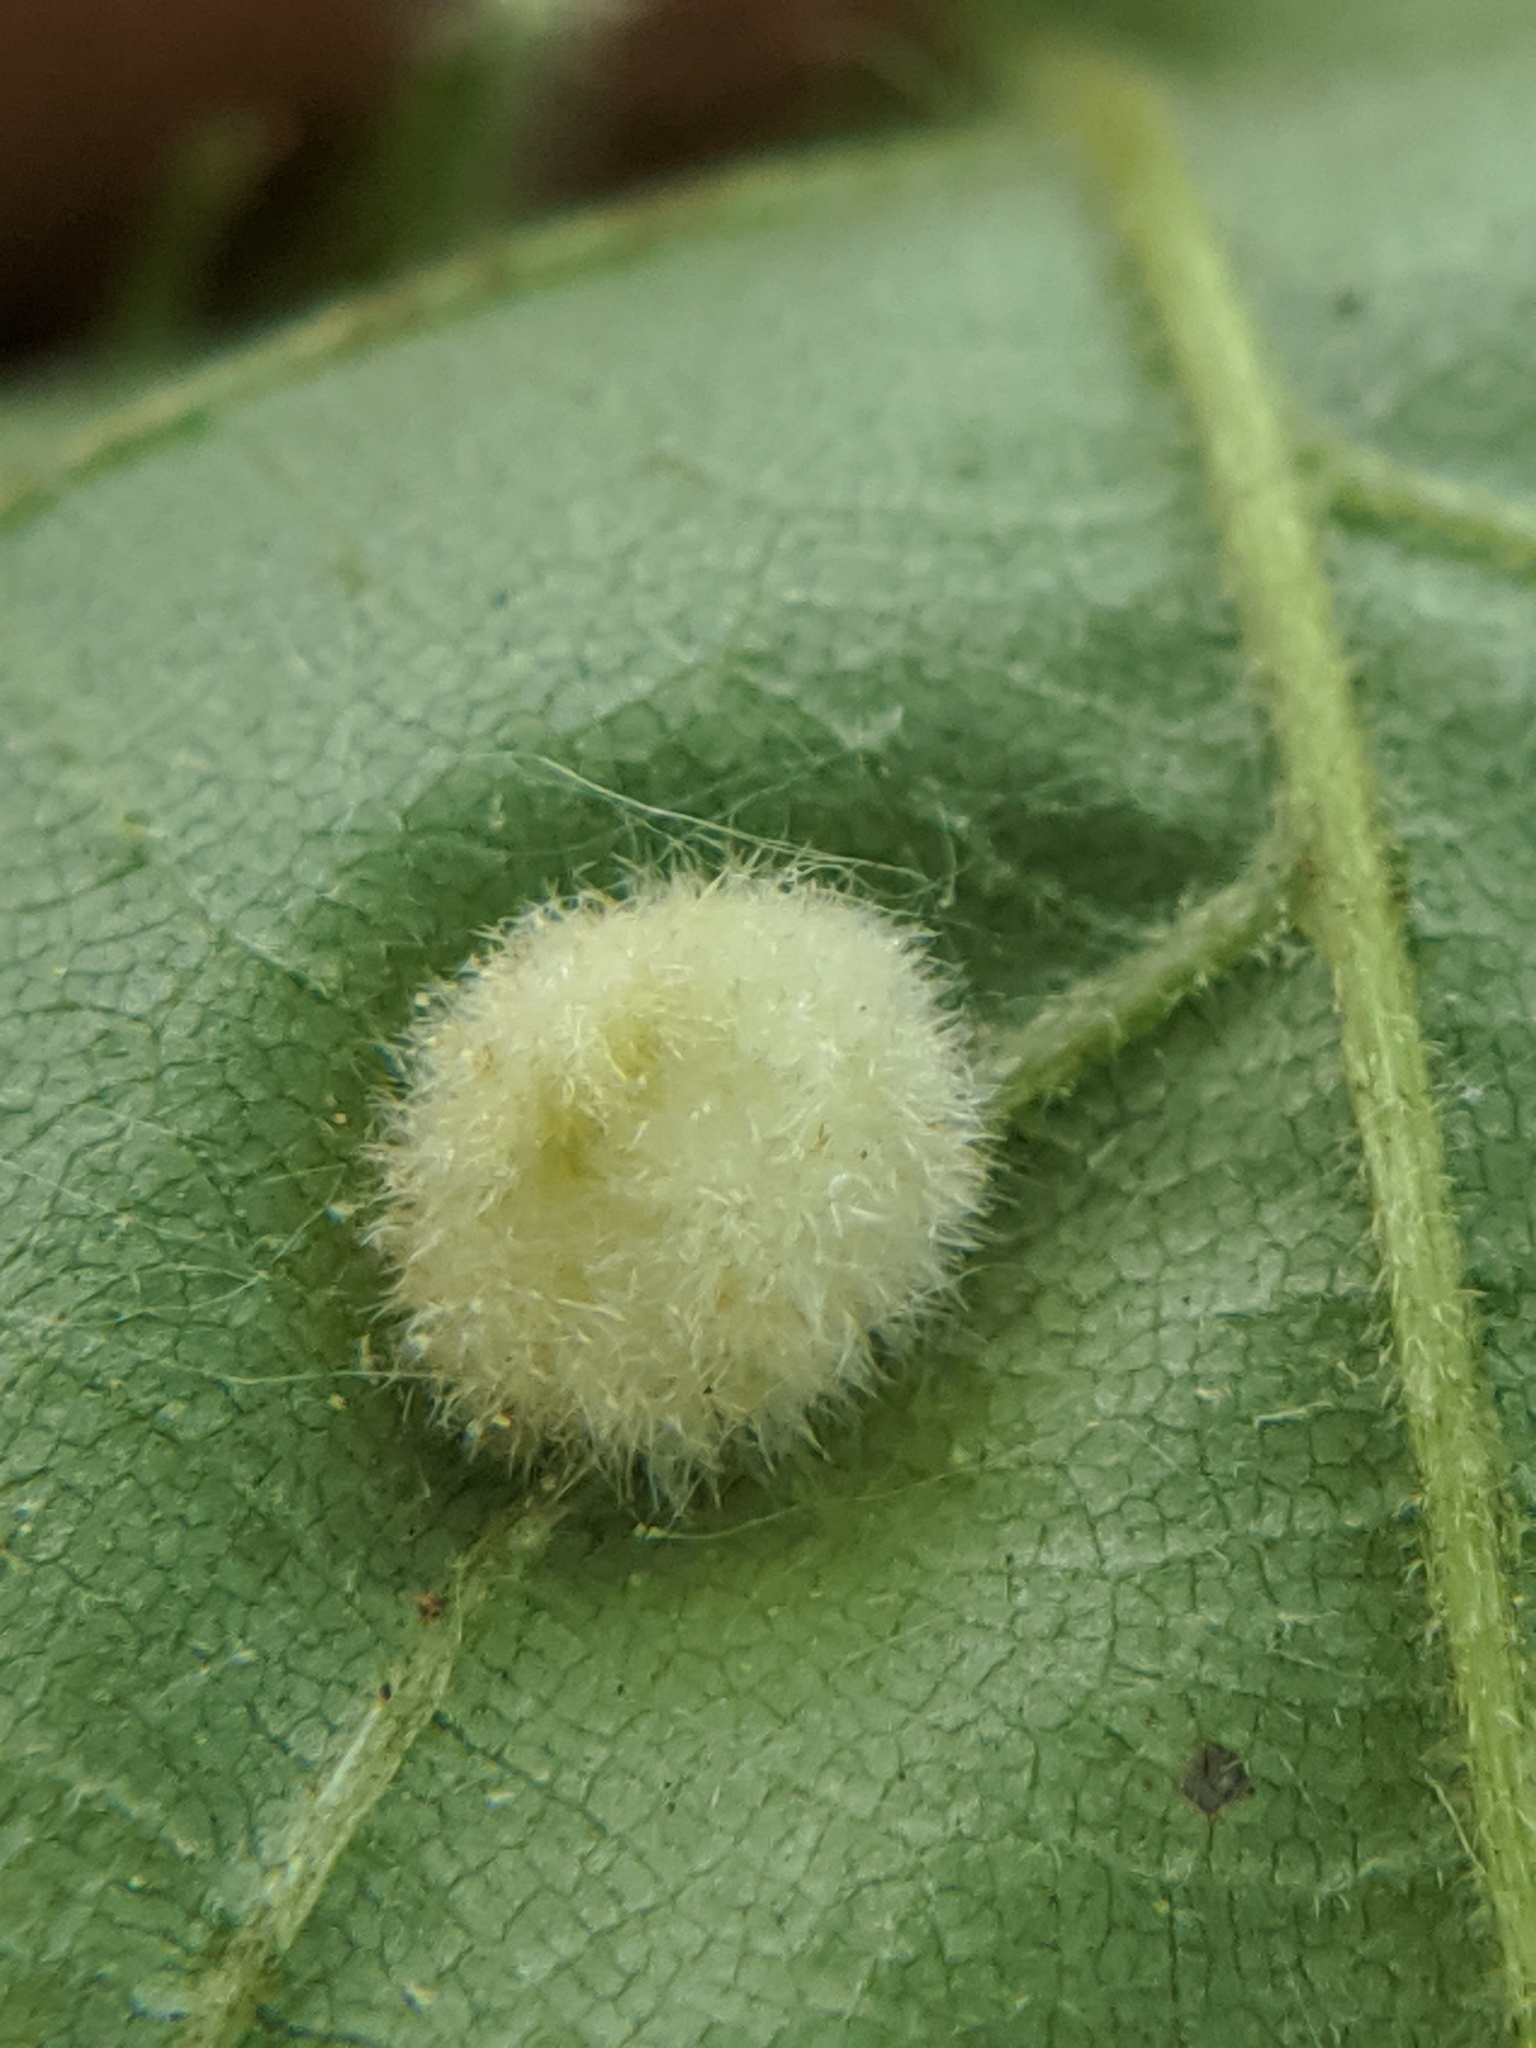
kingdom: Animalia
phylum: Arthropoda
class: Insecta
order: Diptera
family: Cecidomyiidae
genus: Caryomyia
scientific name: Caryomyia aggregata
